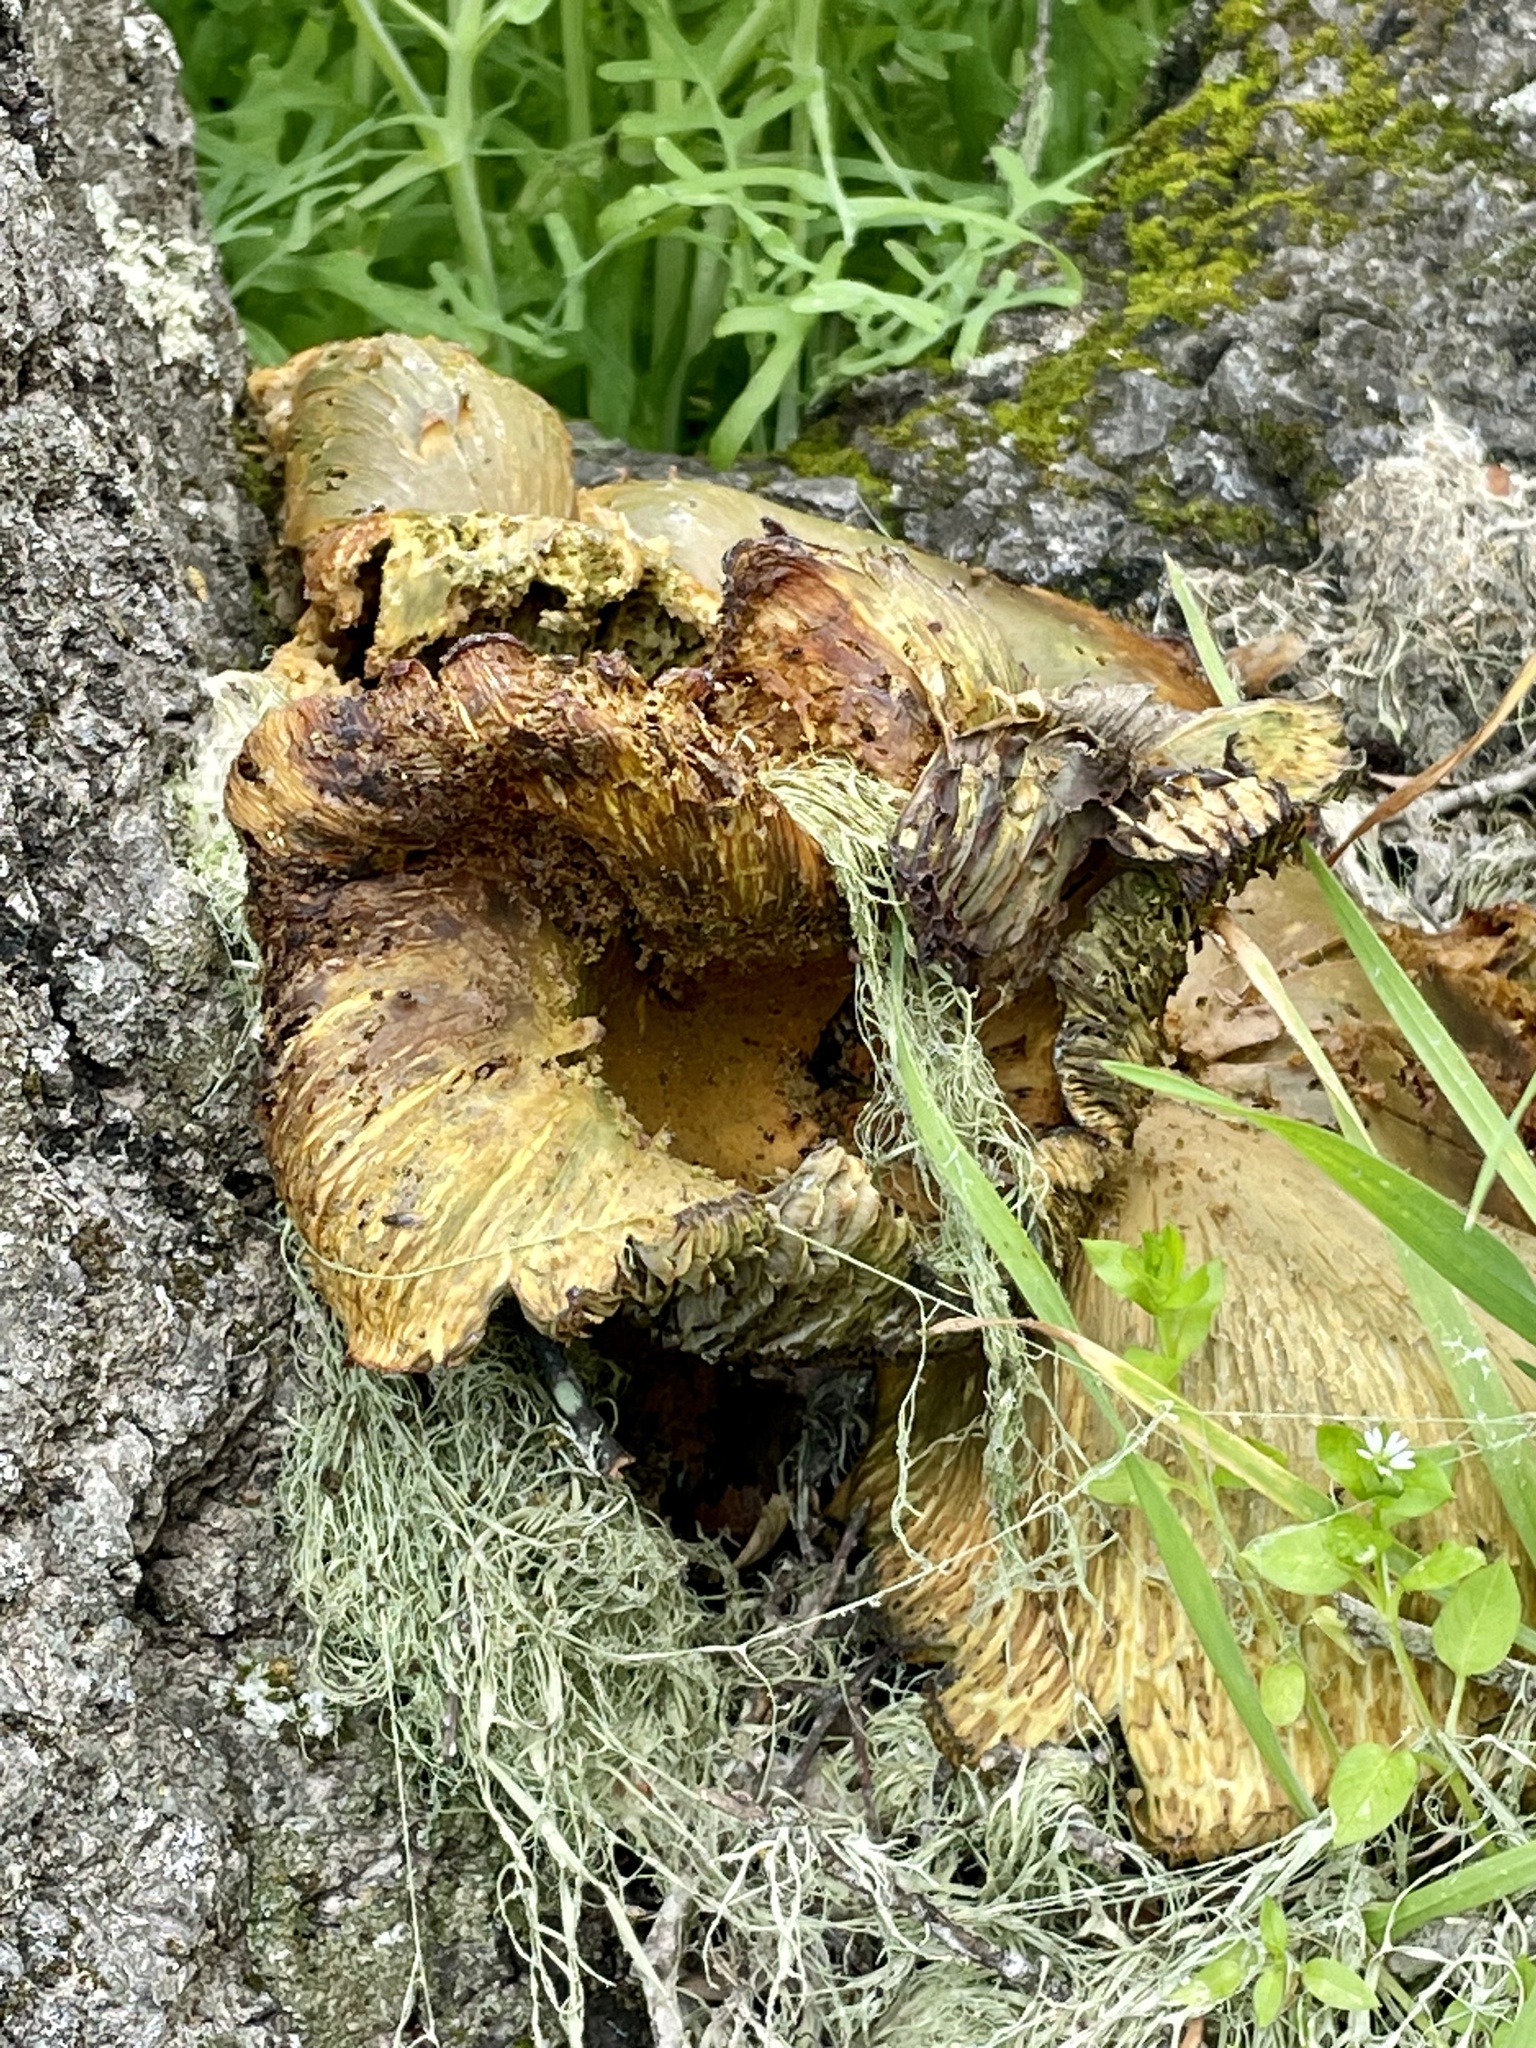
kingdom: Fungi
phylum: Basidiomycota
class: Agaricomycetes
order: Agaricales
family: Omphalotaceae
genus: Omphalotus
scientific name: Omphalotus olivascens
